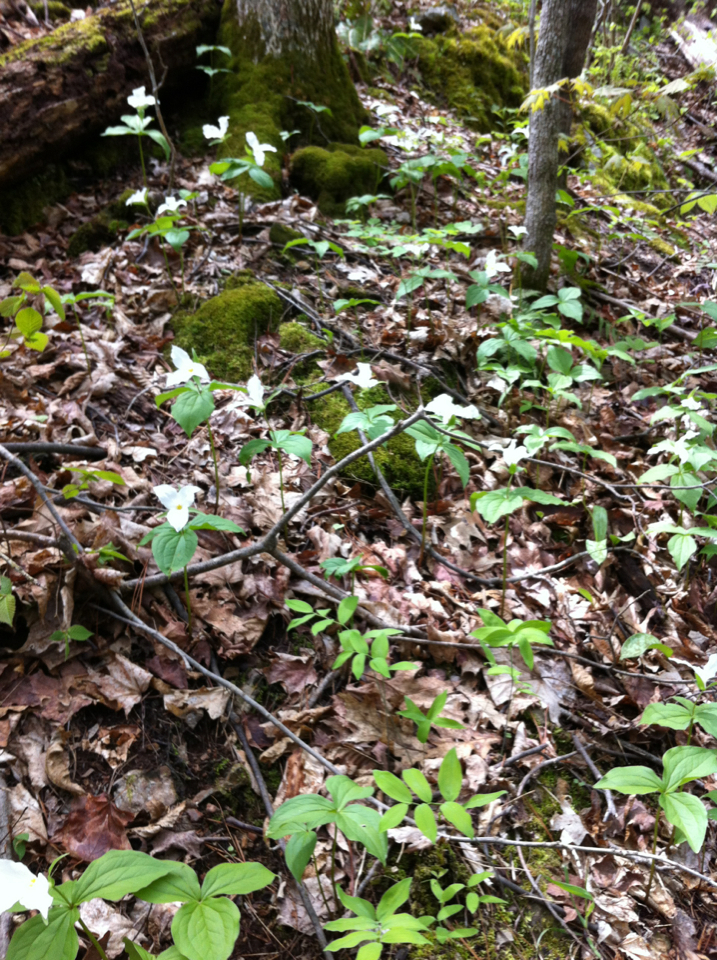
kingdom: Plantae
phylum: Tracheophyta
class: Liliopsida
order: Liliales
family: Melanthiaceae
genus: Trillium
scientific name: Trillium grandiflorum
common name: Great white trillium
